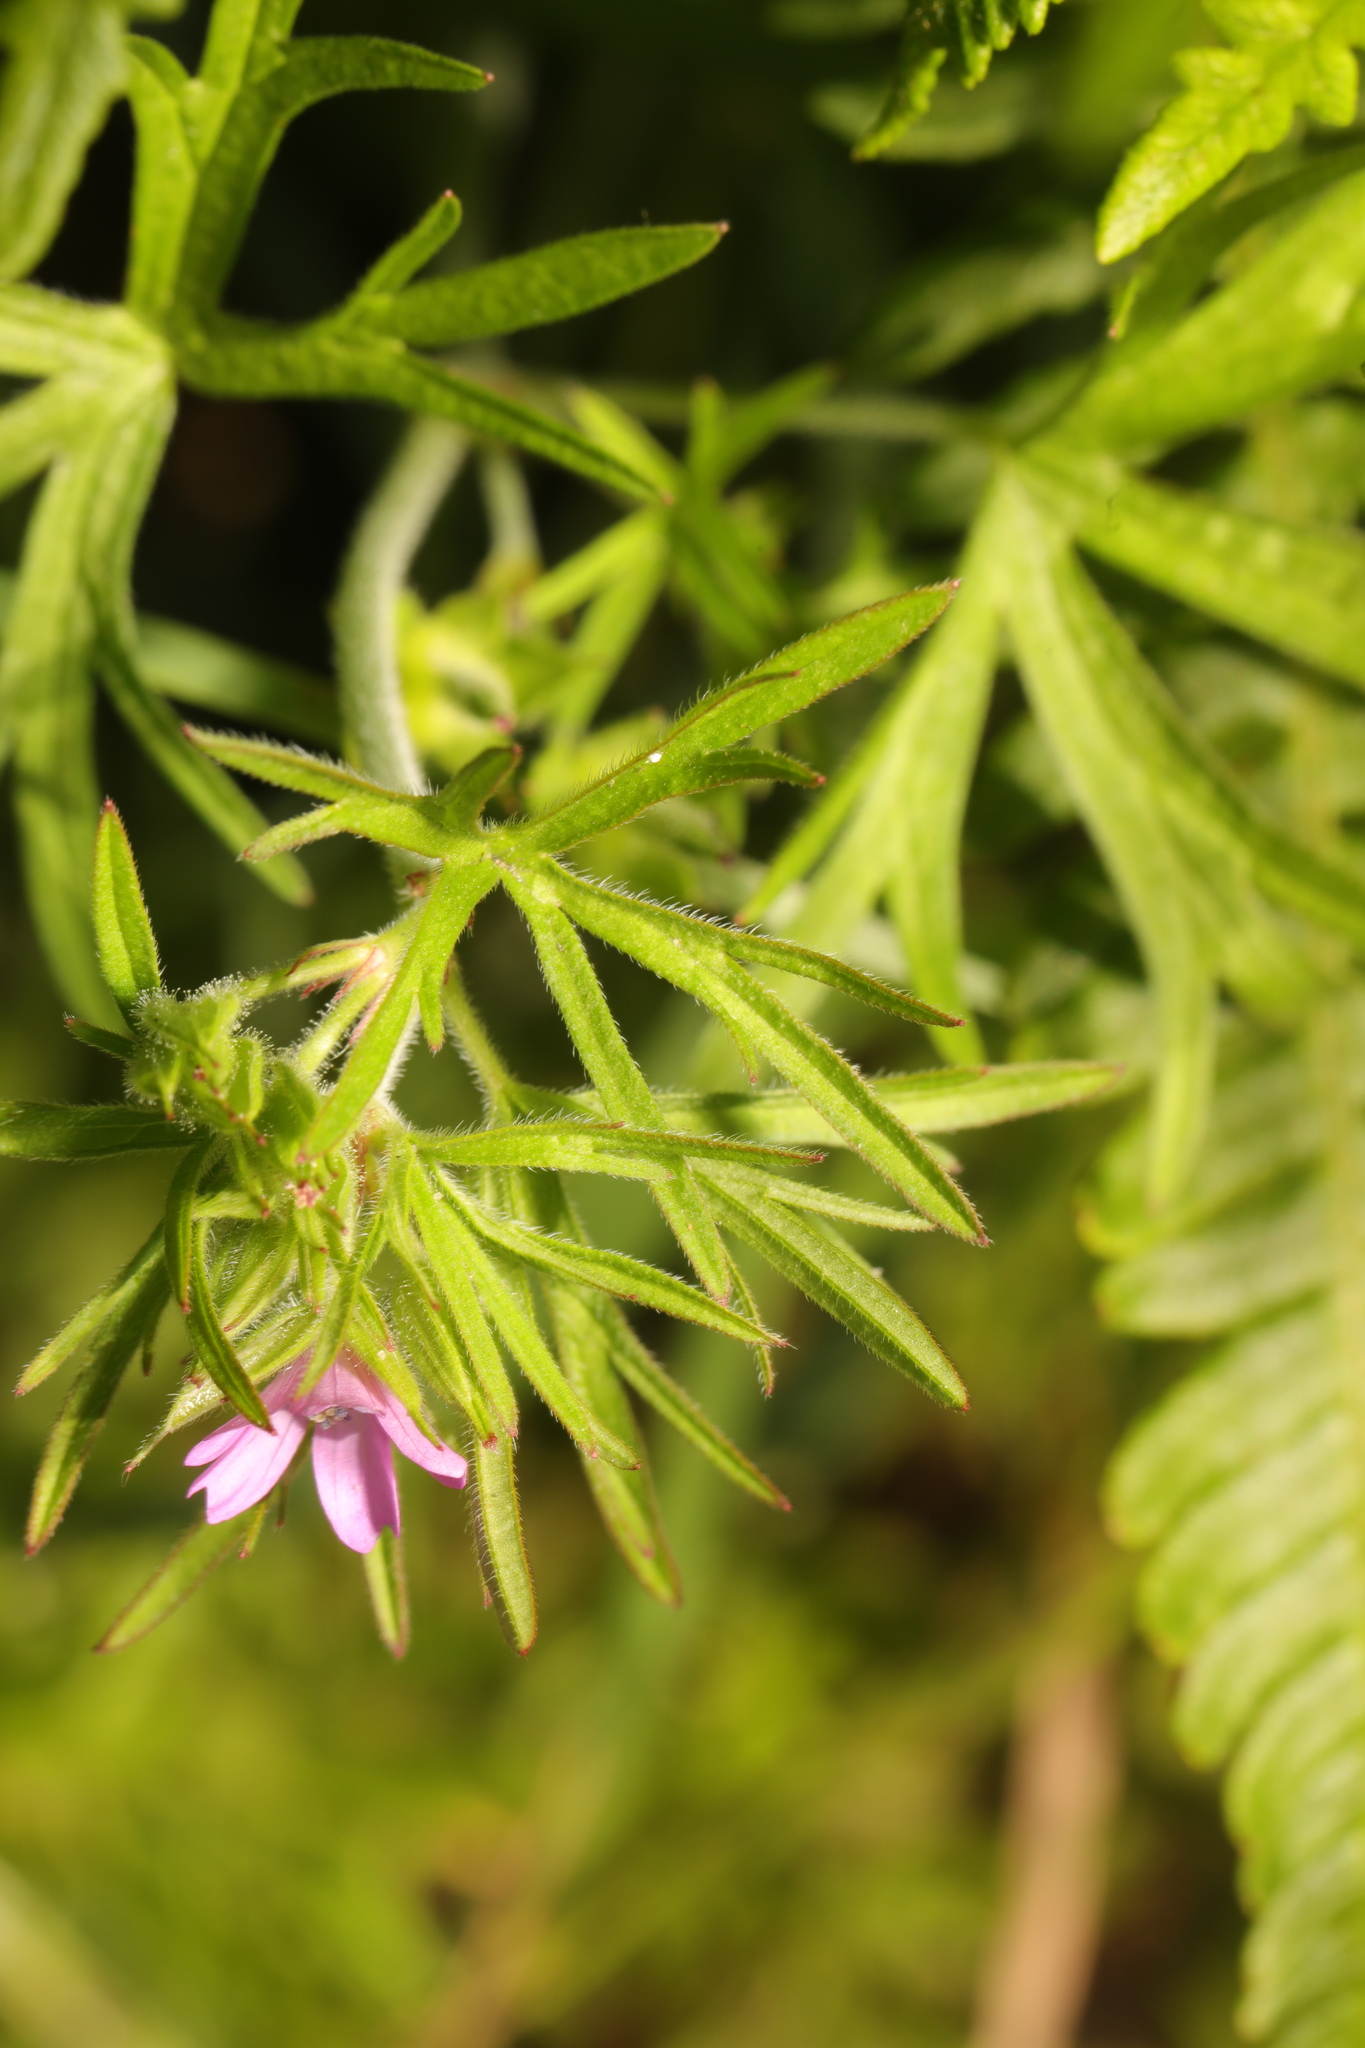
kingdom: Plantae
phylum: Tracheophyta
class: Magnoliopsida
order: Geraniales
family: Geraniaceae
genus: Geranium
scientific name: Geranium dissectum
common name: Cut-leaved crane's-bill
